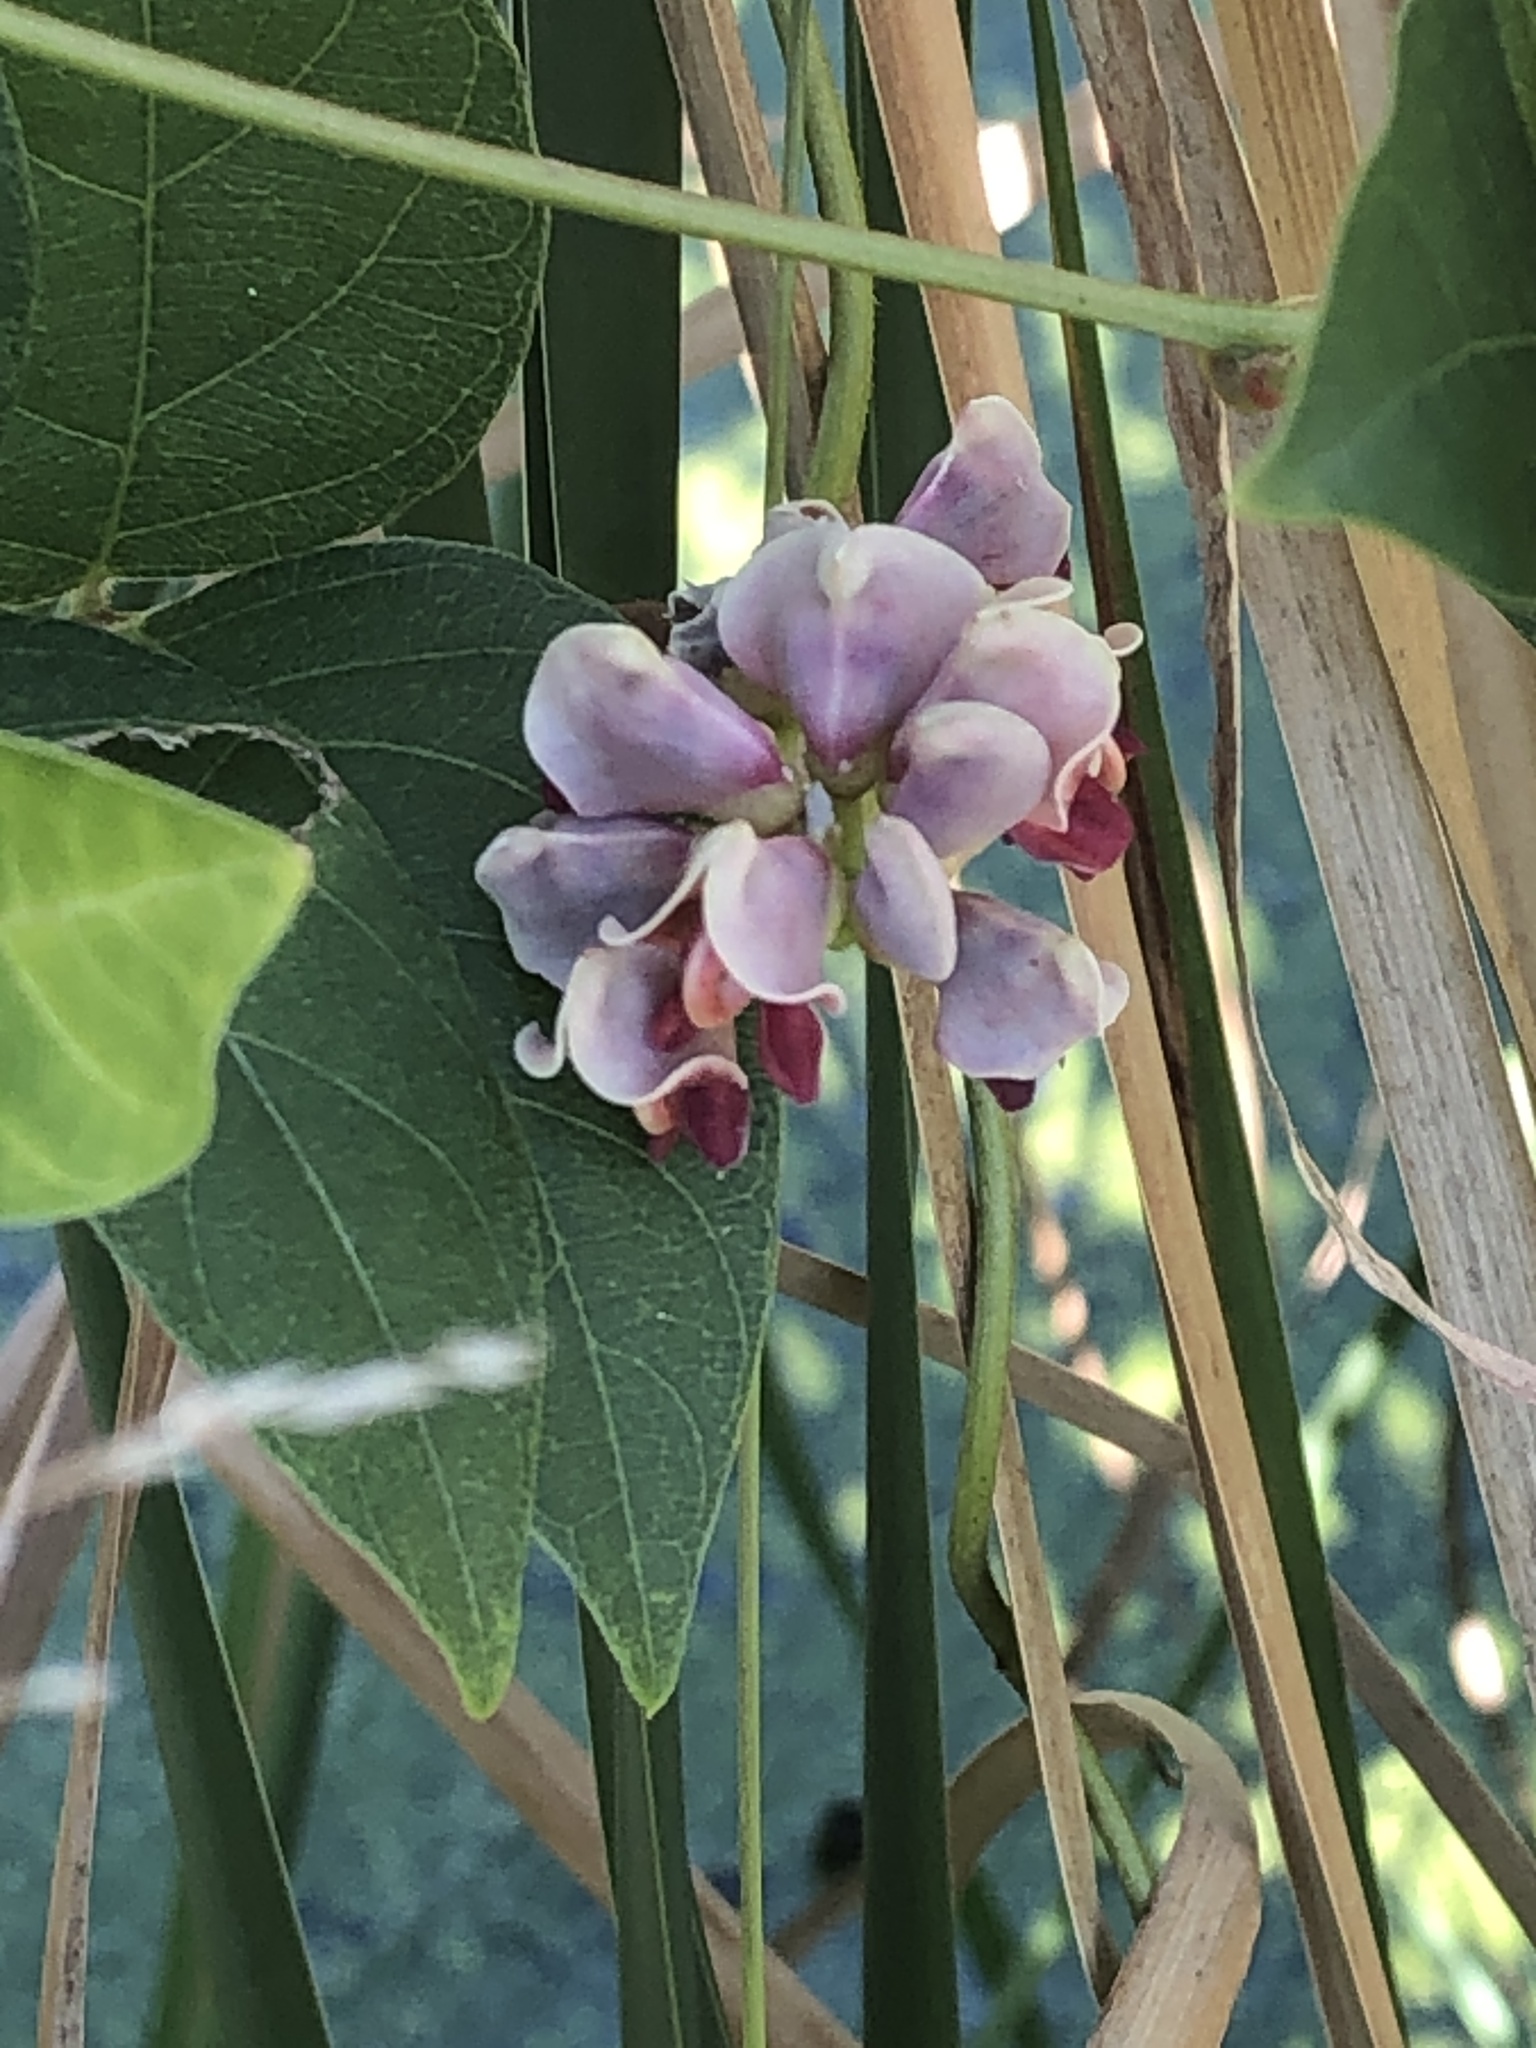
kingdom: Plantae
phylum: Tracheophyta
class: Magnoliopsida
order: Fabales
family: Fabaceae
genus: Apios
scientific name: Apios americana
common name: American potato-bean
